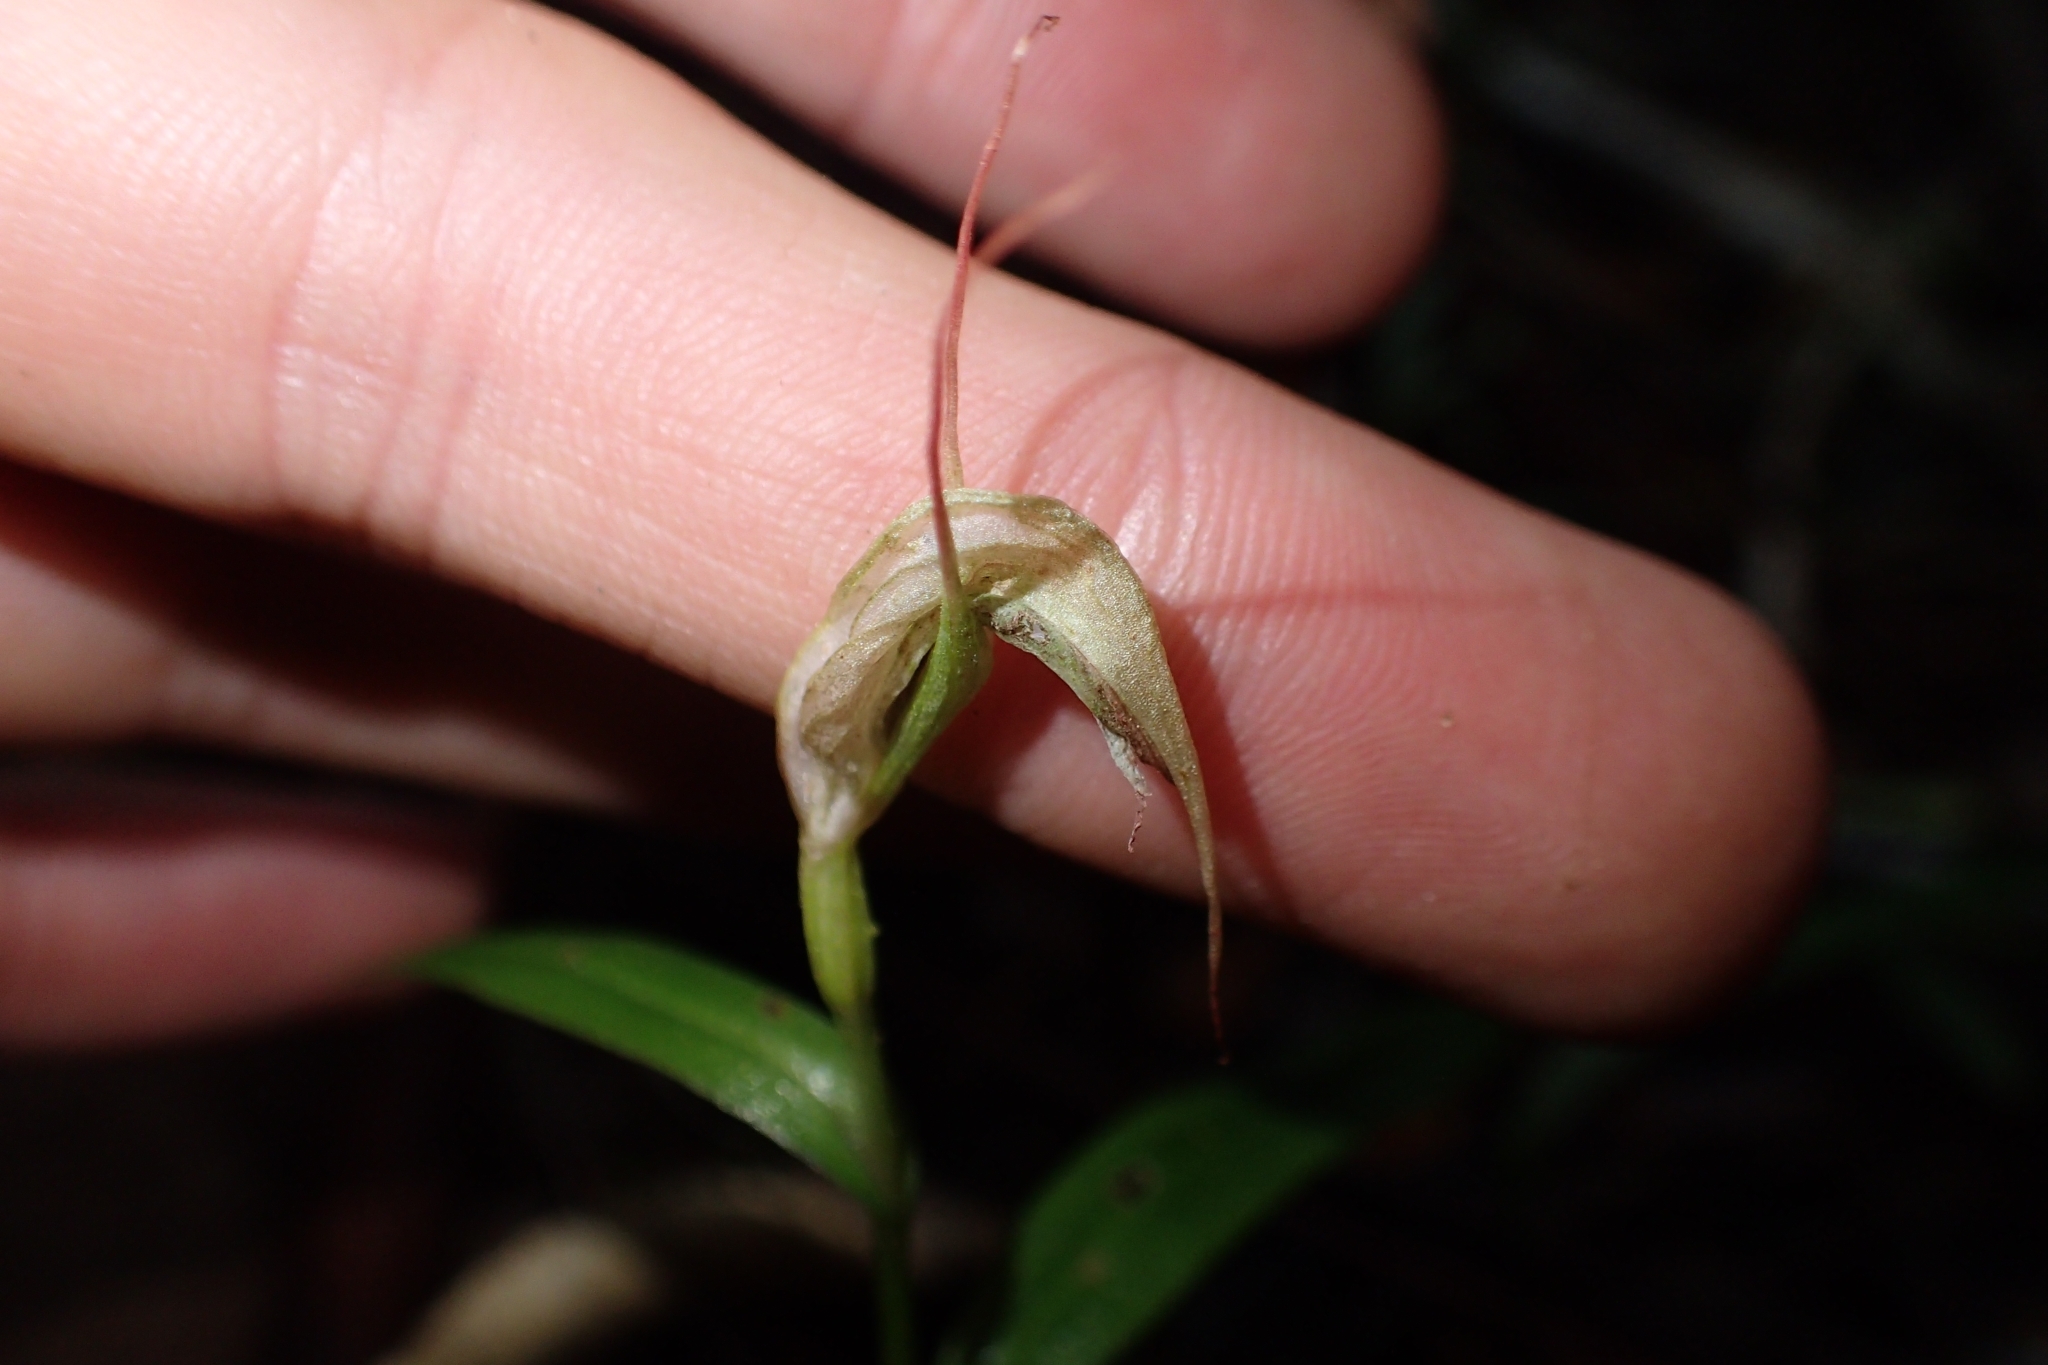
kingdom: Plantae
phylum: Tracheophyta
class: Liliopsida
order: Asparagales
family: Orchidaceae
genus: Pterostylis
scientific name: Pterostylis agathicola
